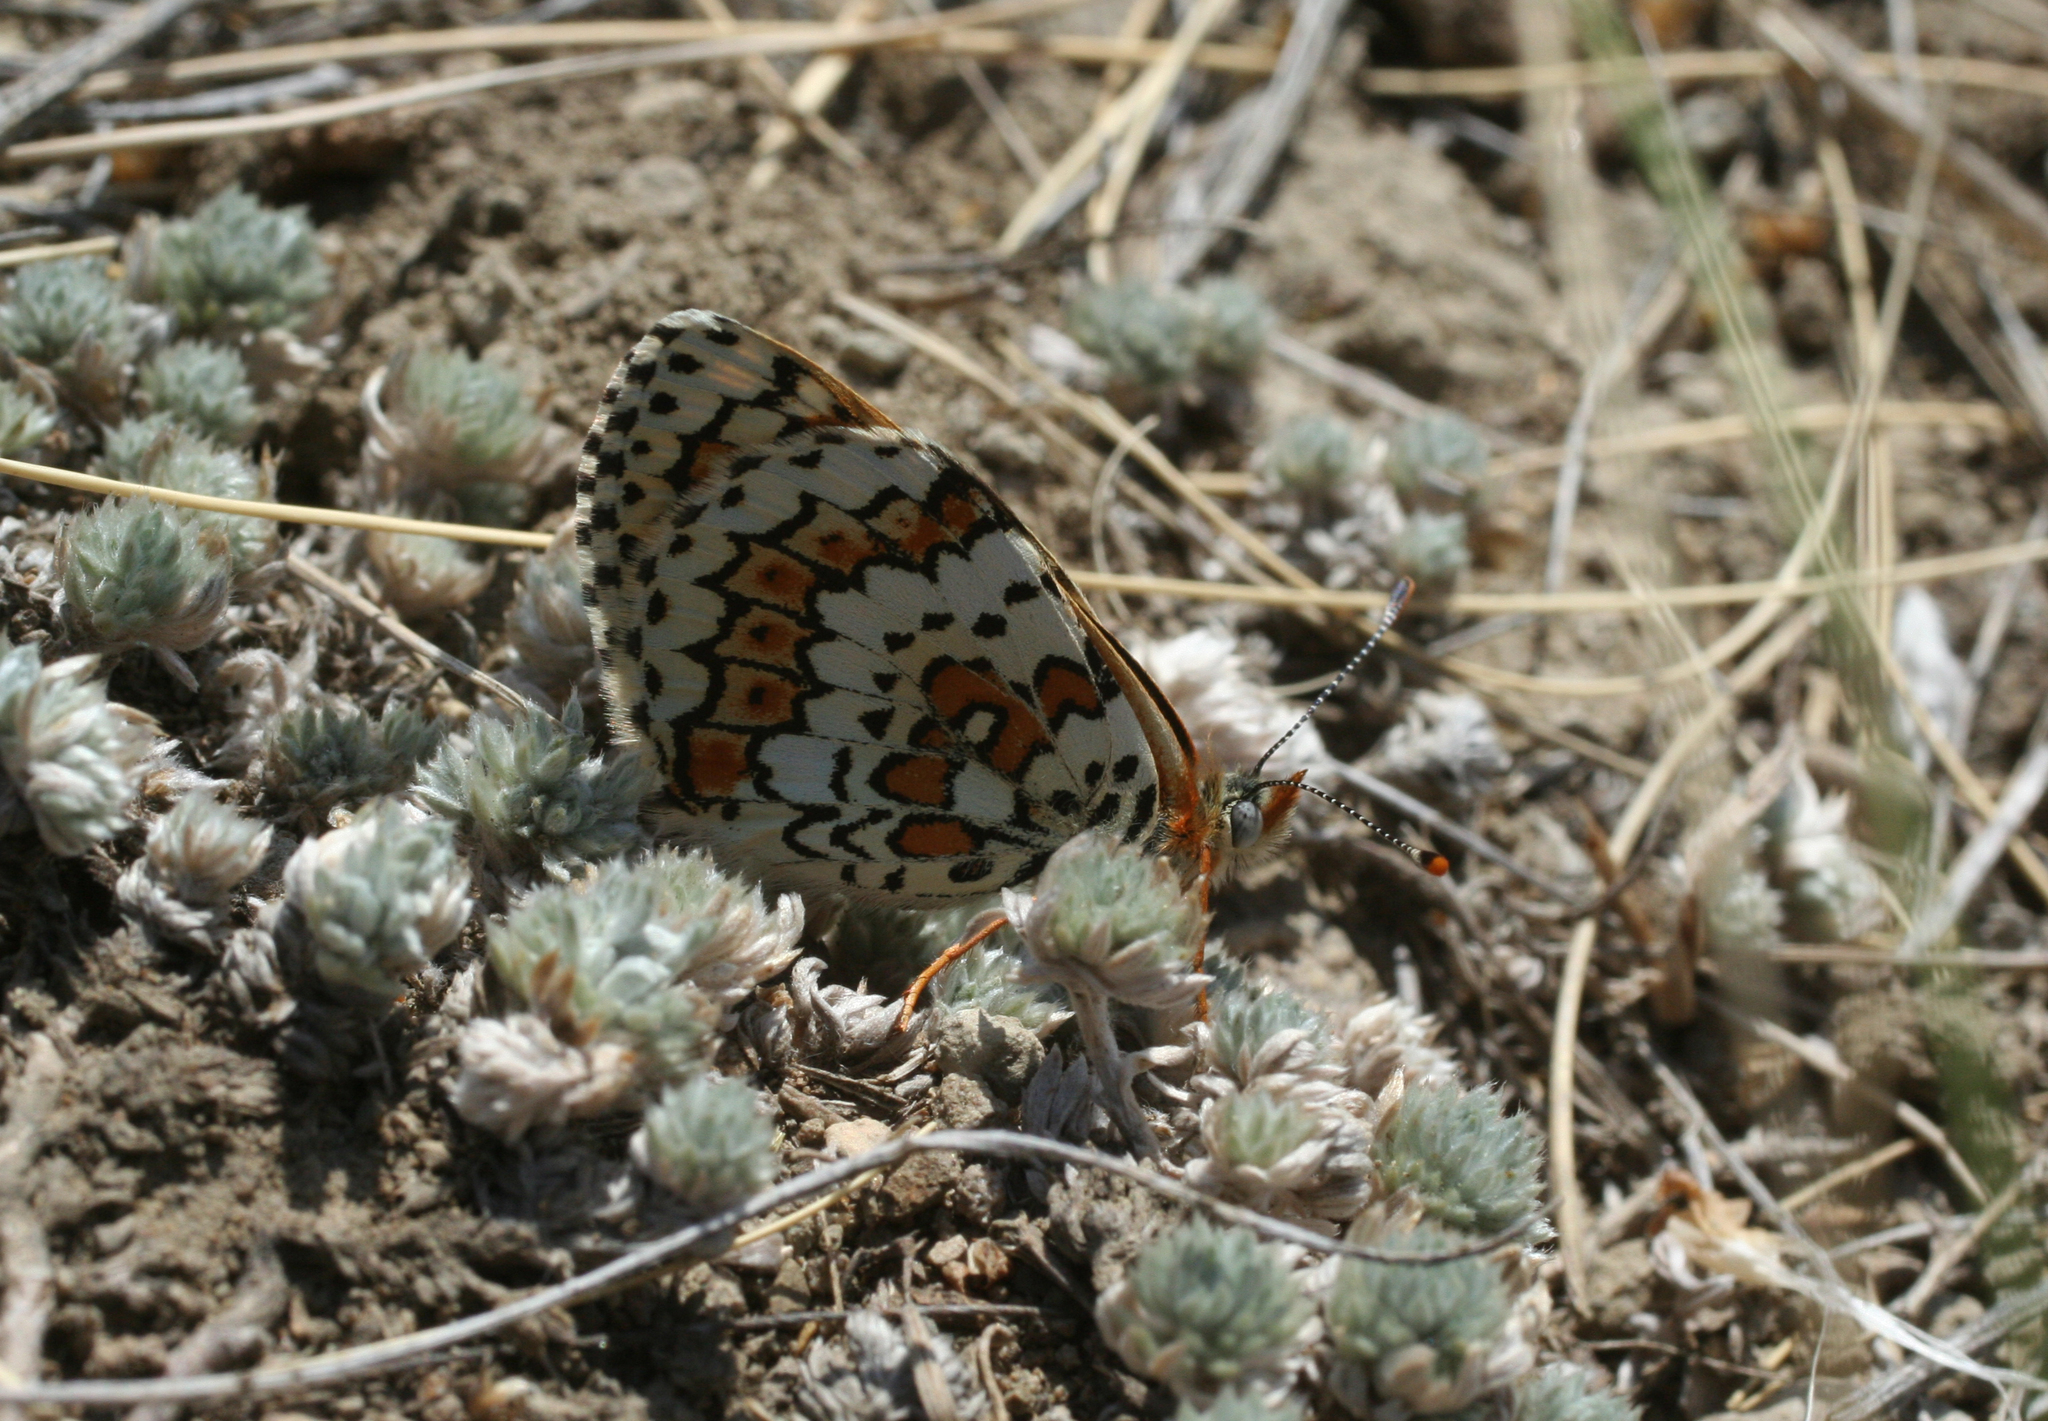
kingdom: Animalia
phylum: Arthropoda
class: Insecta
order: Lepidoptera
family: Nymphalidae
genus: Melitaea
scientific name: Melitaea cinxia
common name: Glanville fritillary
